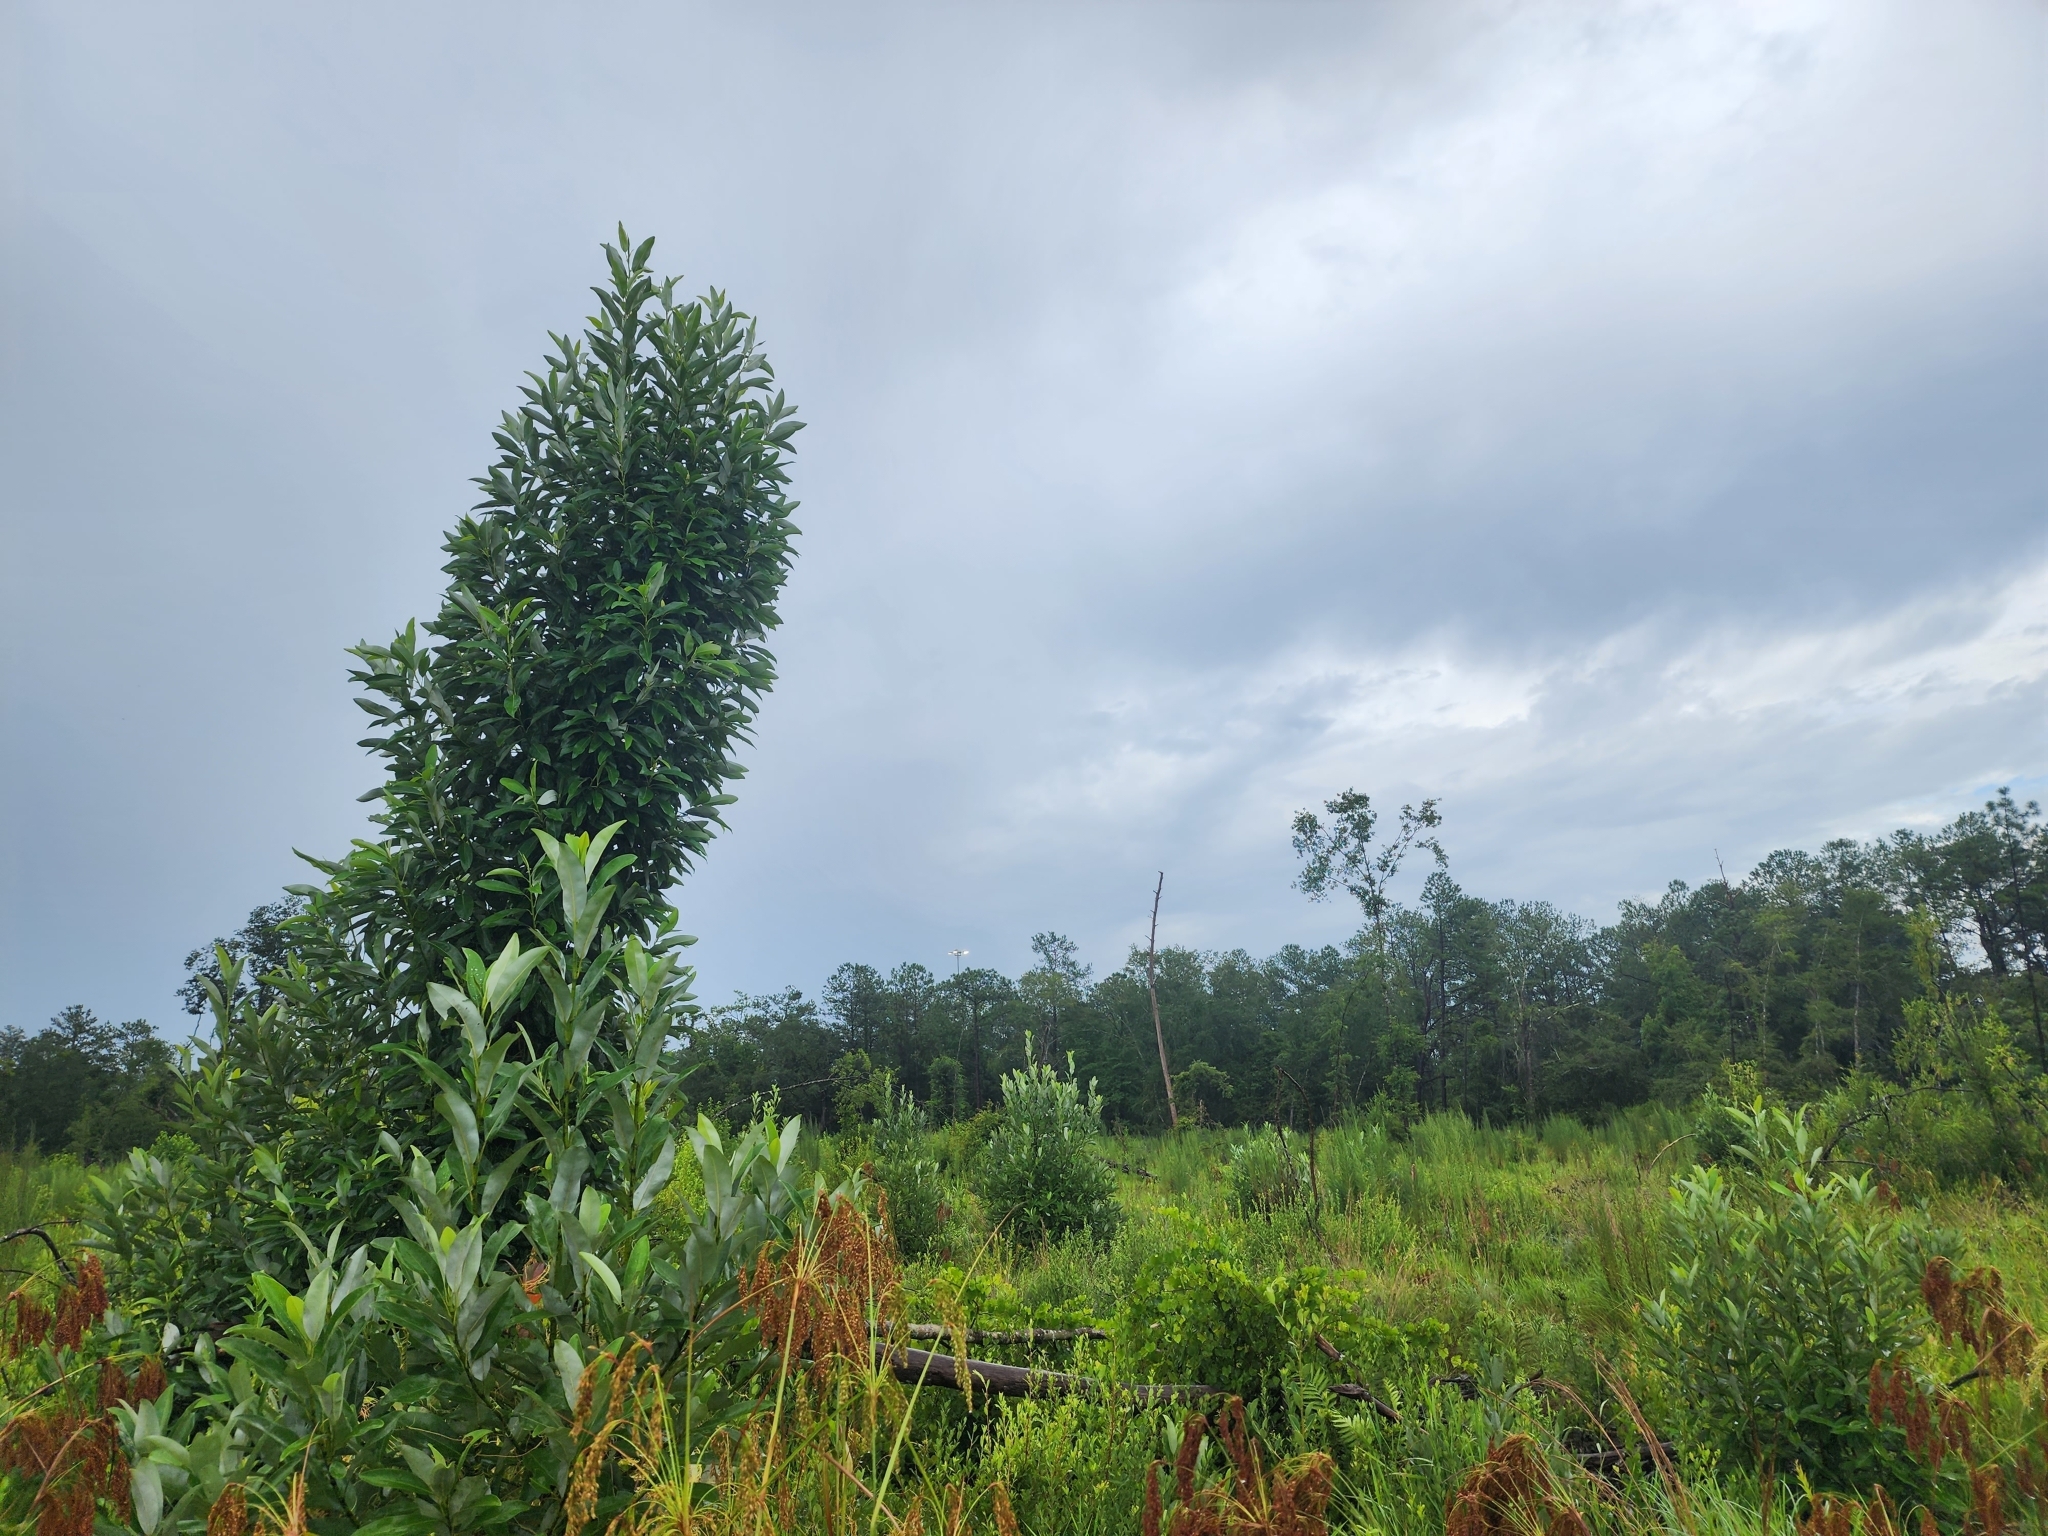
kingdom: Plantae
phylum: Tracheophyta
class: Magnoliopsida
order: Magnoliales
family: Magnoliaceae
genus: Magnolia
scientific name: Magnolia virginiana
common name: Swamp bay
